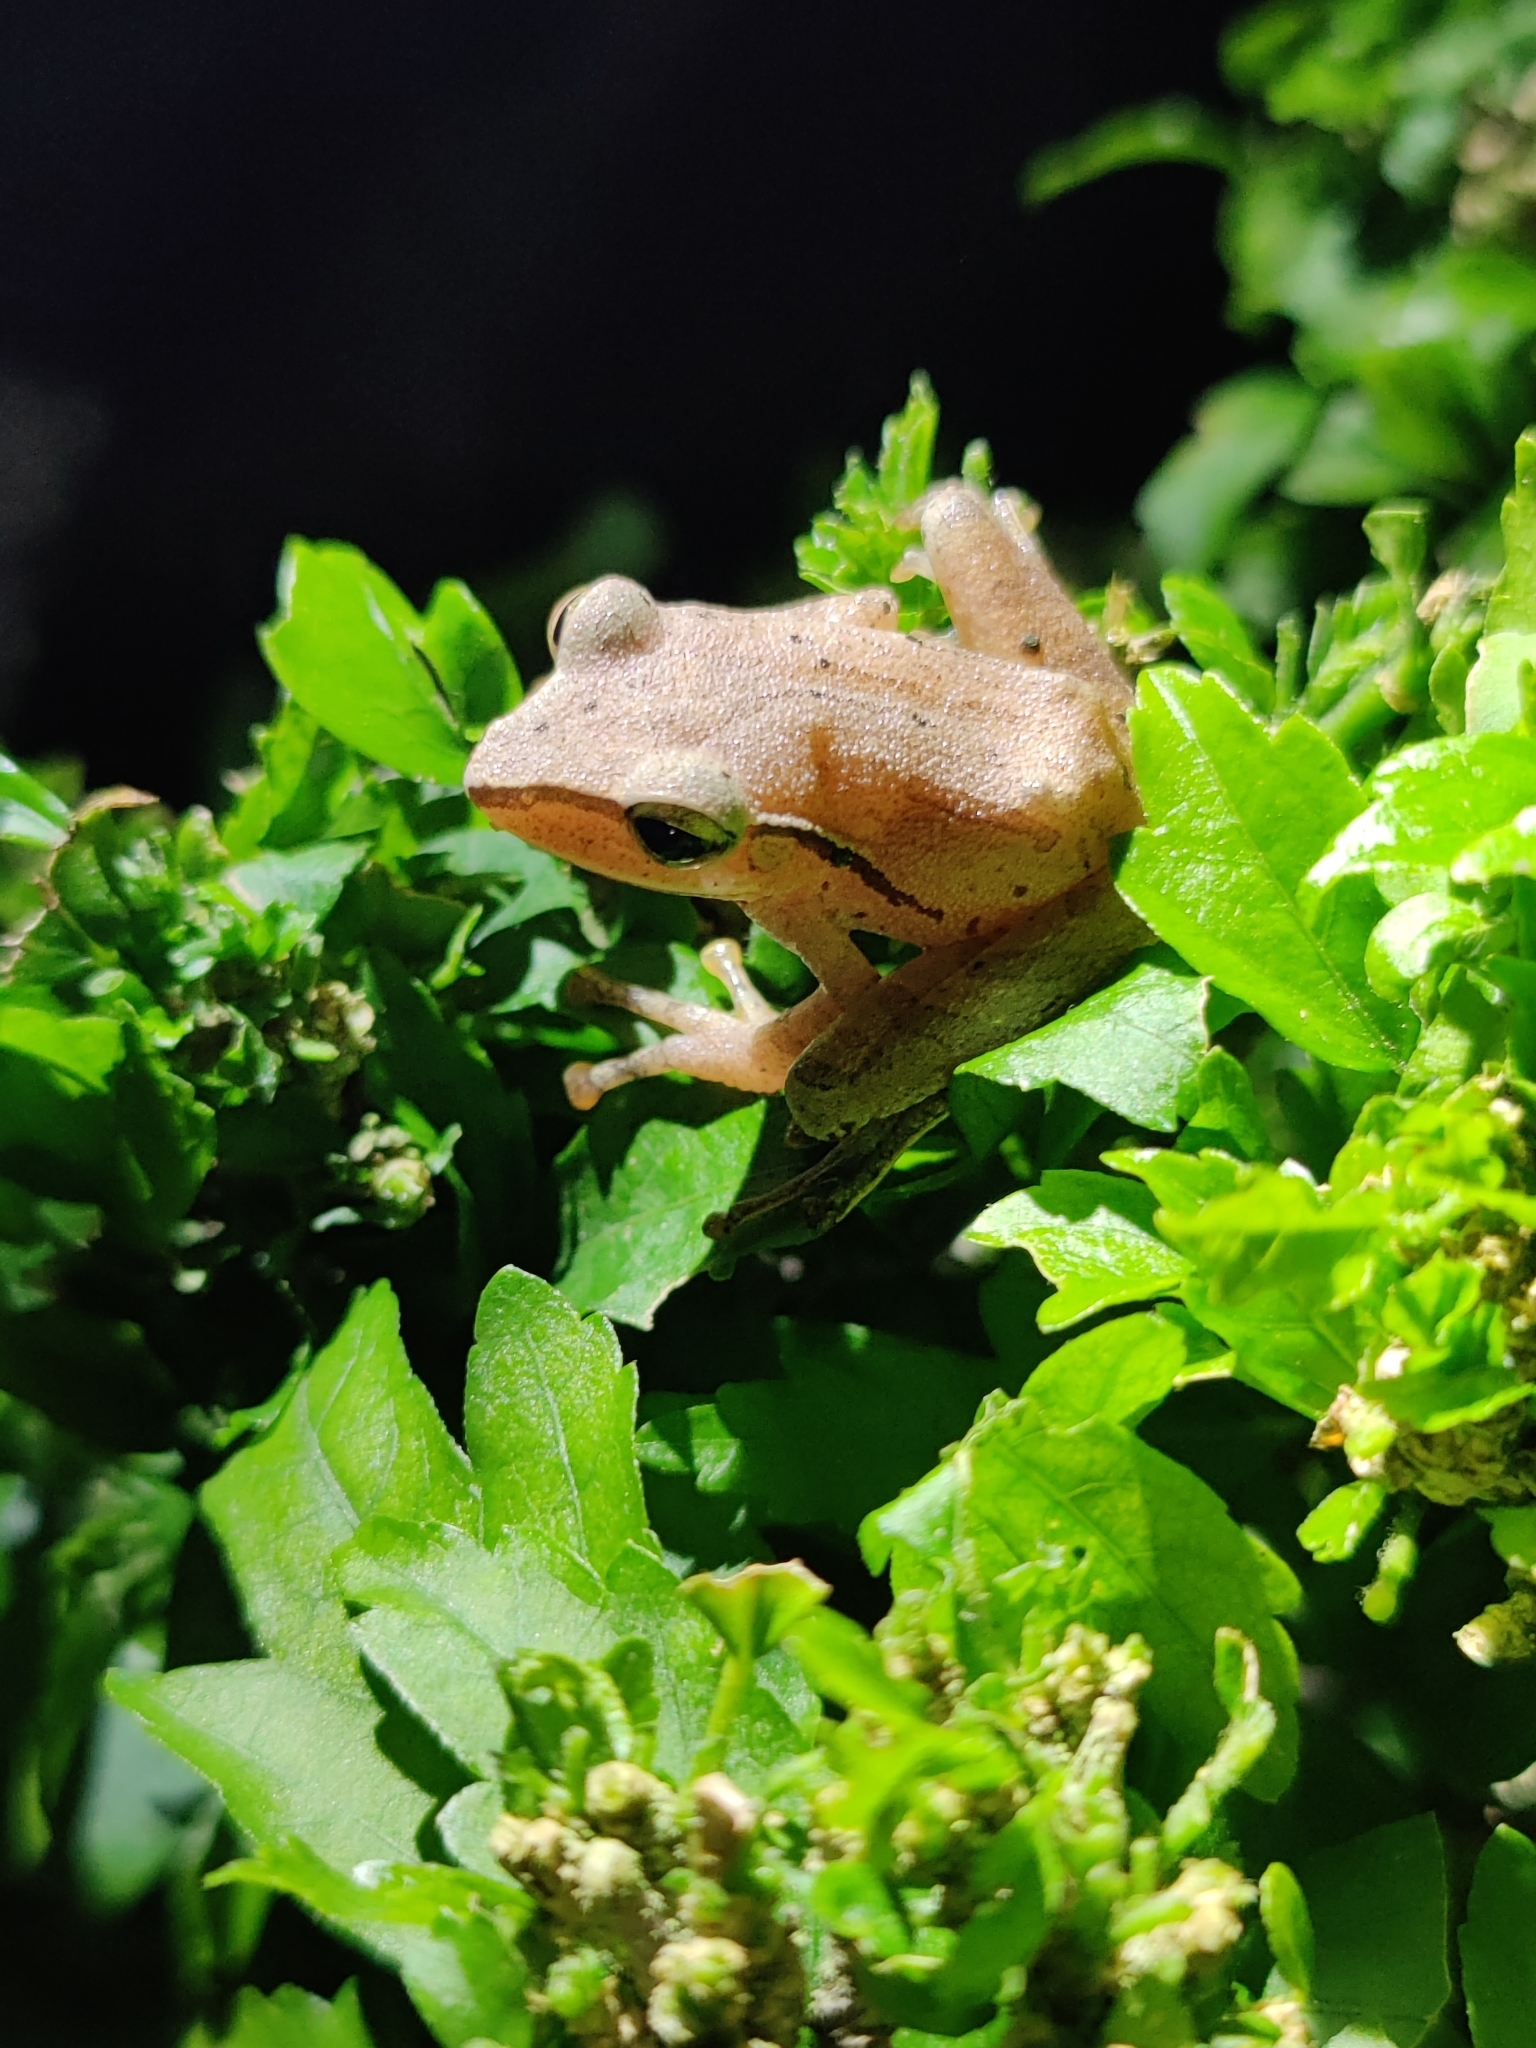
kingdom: Animalia
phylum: Chordata
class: Amphibia
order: Anura
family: Rhacophoridae
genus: Polypedates
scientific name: Polypedates subansiriensis
